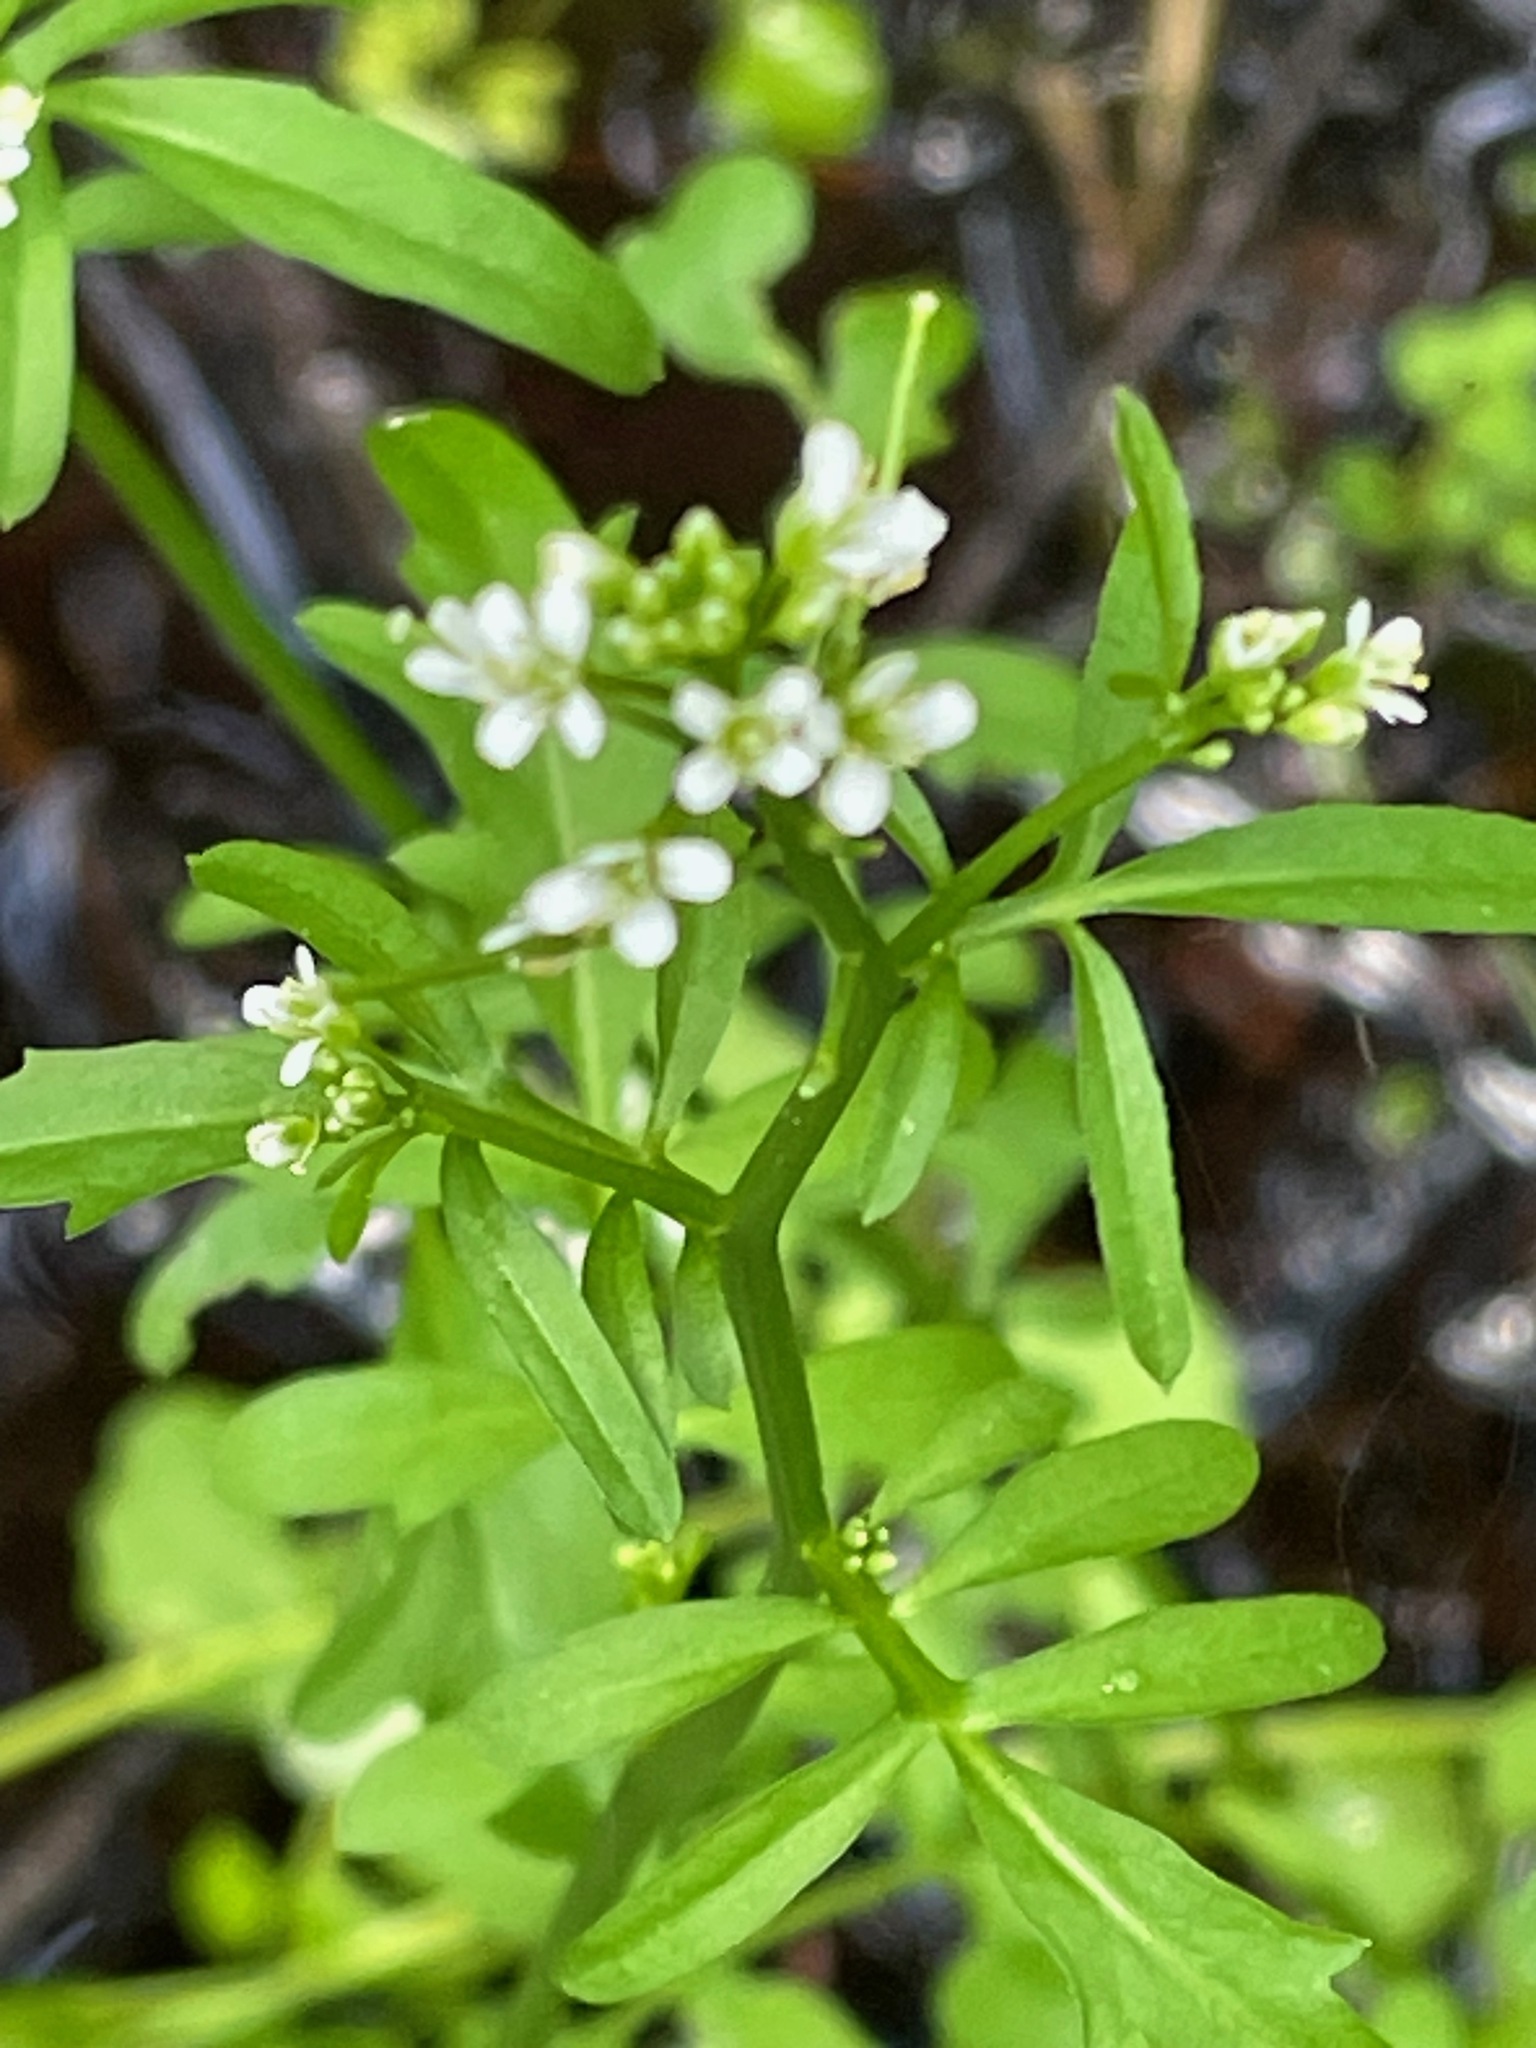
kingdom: Plantae
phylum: Tracheophyta
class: Magnoliopsida
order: Brassicales
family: Brassicaceae
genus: Cardamine
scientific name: Cardamine pensylvanica
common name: Pennsylvania bittercress
